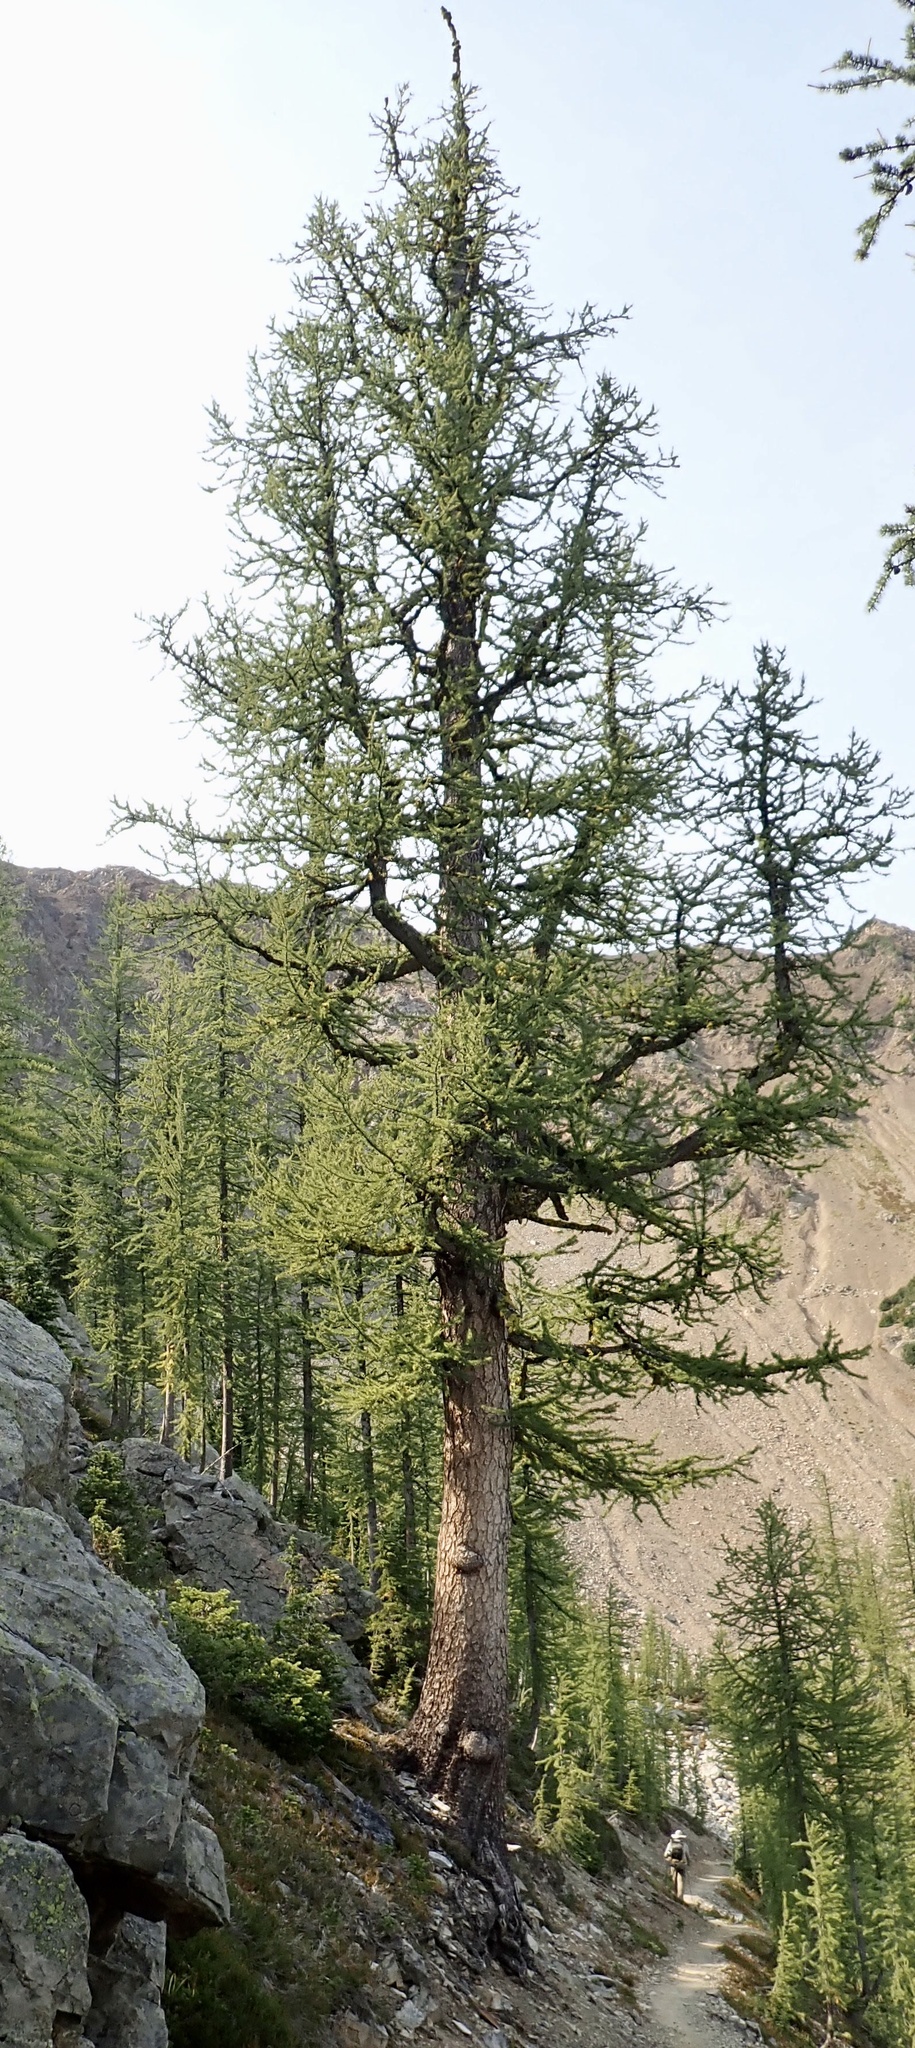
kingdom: Plantae
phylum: Tracheophyta
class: Pinopsida
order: Pinales
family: Pinaceae
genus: Larix
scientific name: Larix lyallii
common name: Alpine larch
